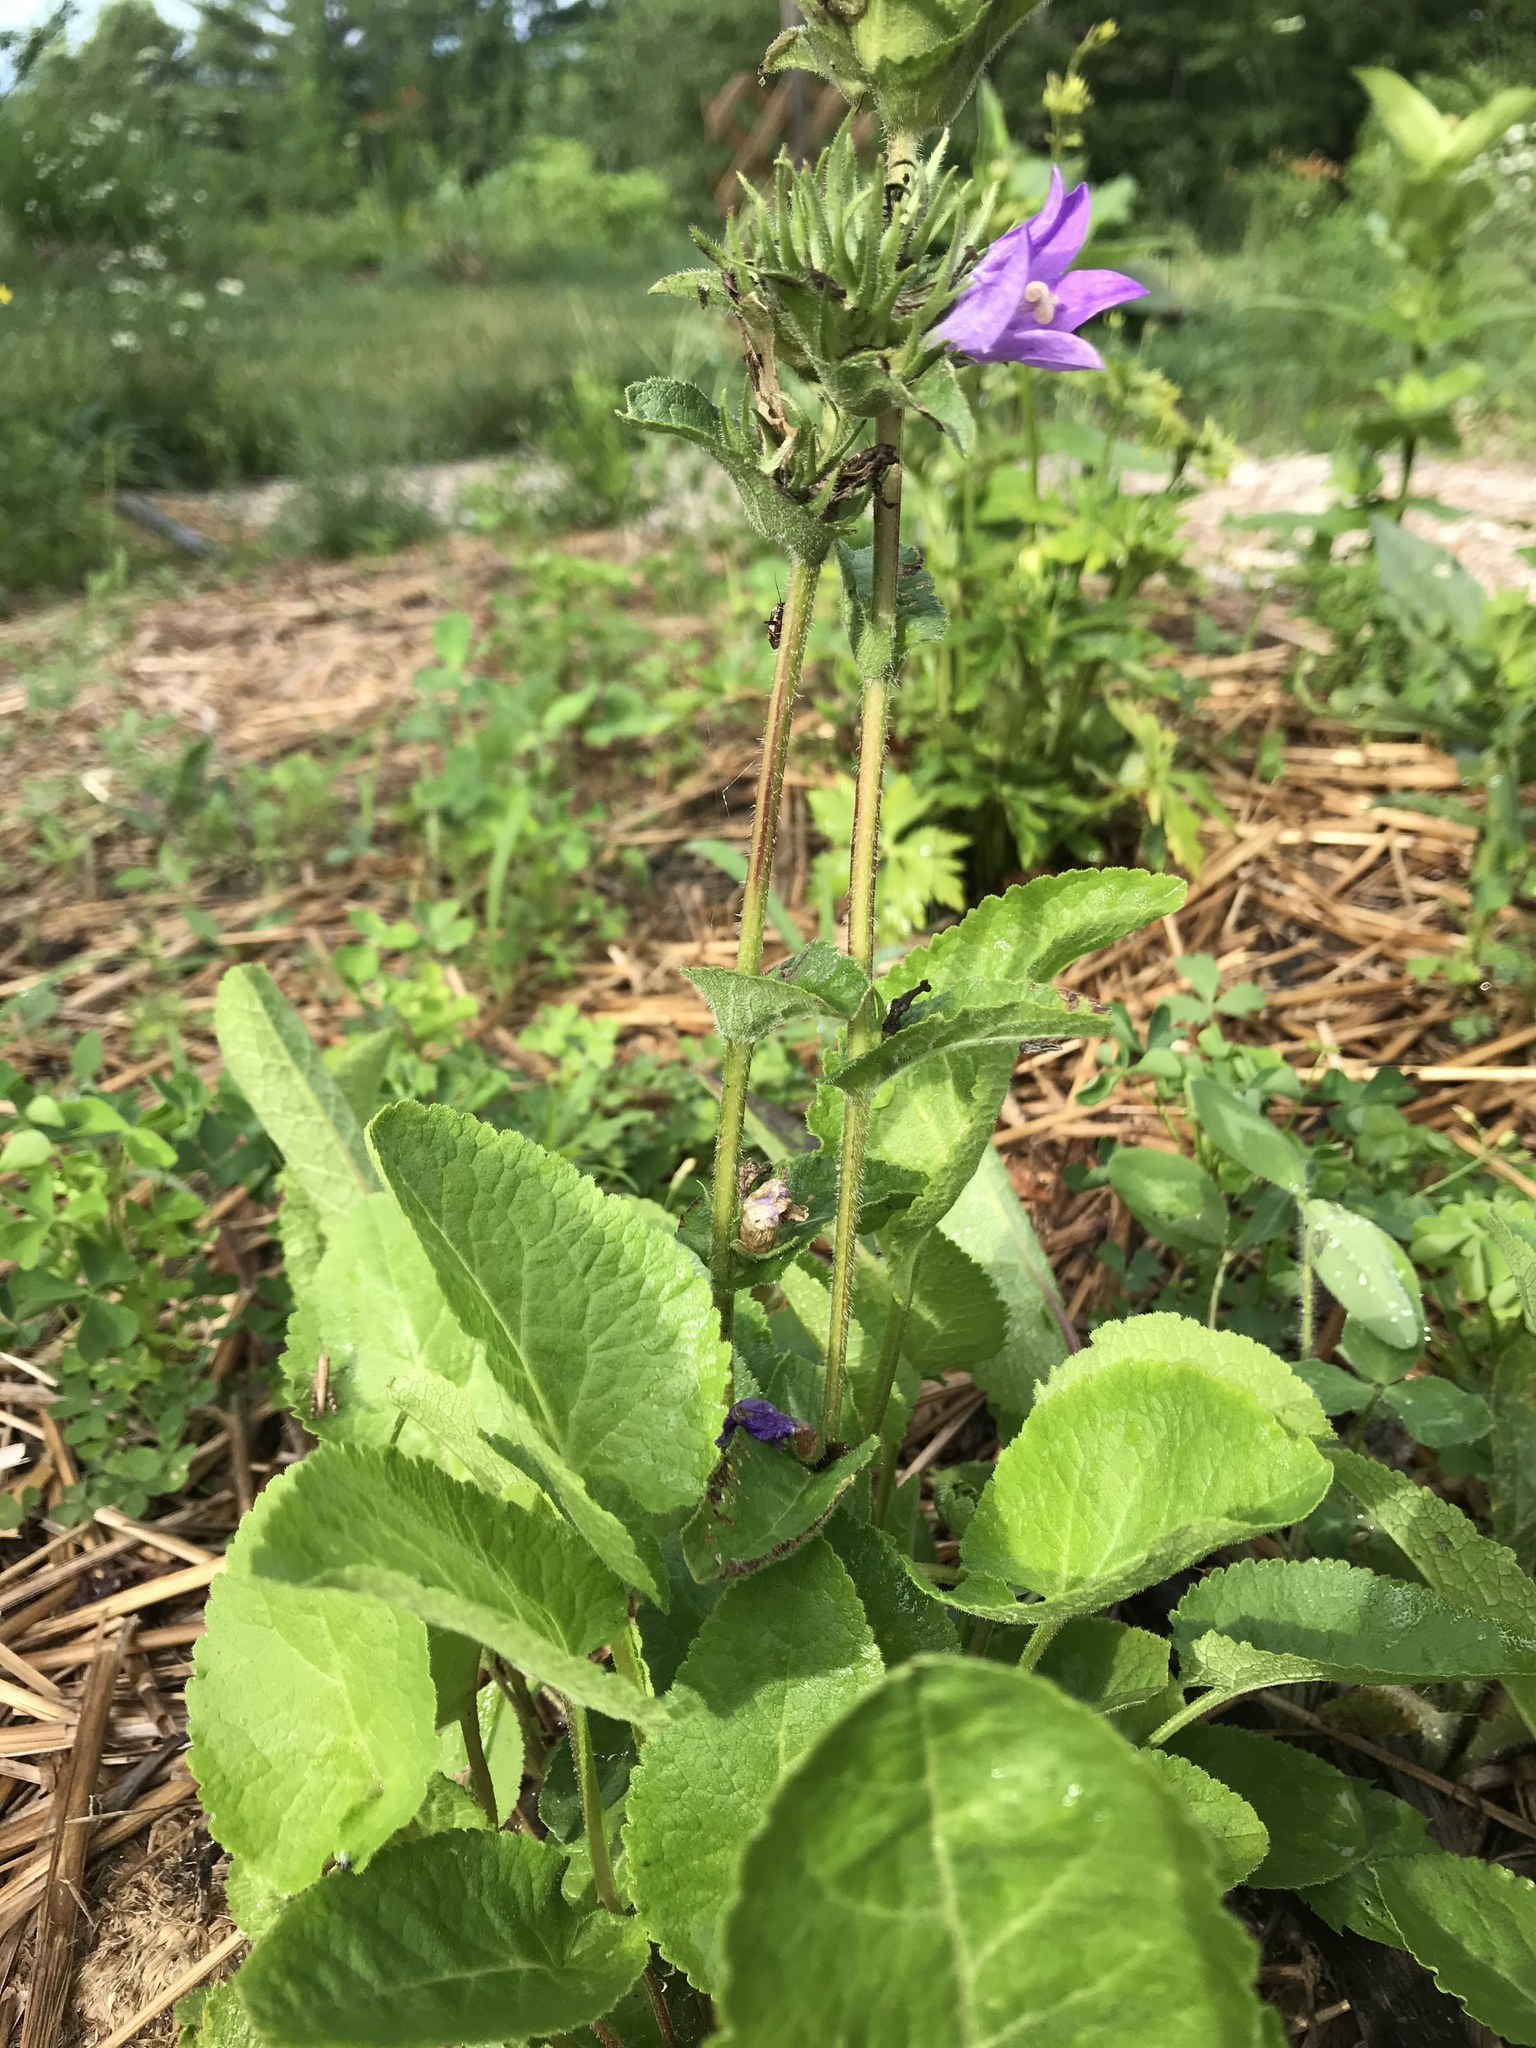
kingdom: Plantae
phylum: Tracheophyta
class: Magnoliopsida
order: Asterales
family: Campanulaceae
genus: Campanula
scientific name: Campanula glomerata
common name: Clustered bellflower
